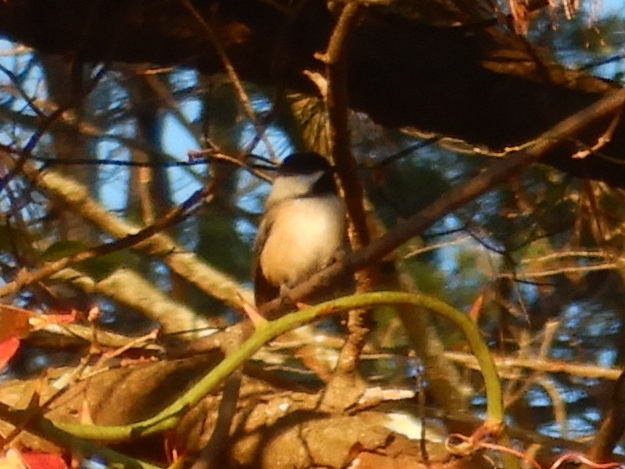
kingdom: Animalia
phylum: Chordata
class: Aves
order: Passeriformes
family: Paridae
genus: Poecile
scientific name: Poecile atricapillus
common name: Black-capped chickadee
